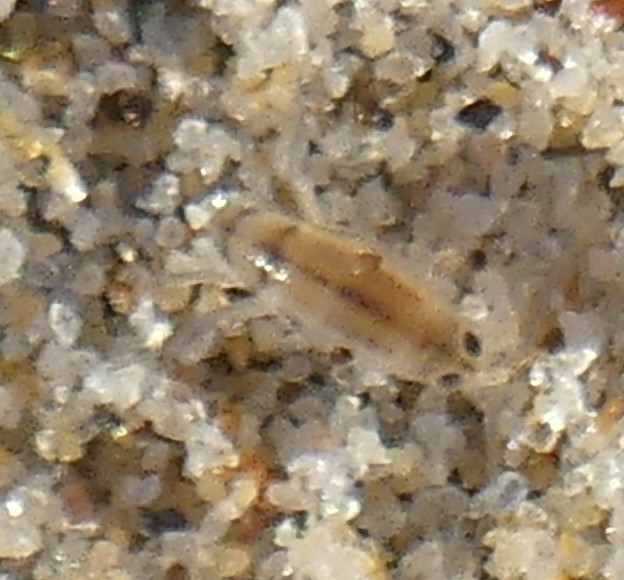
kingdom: Animalia
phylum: Arthropoda
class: Malacostraca
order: Amphipoda
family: Talitridae
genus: Talitrus
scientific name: Talitrus
